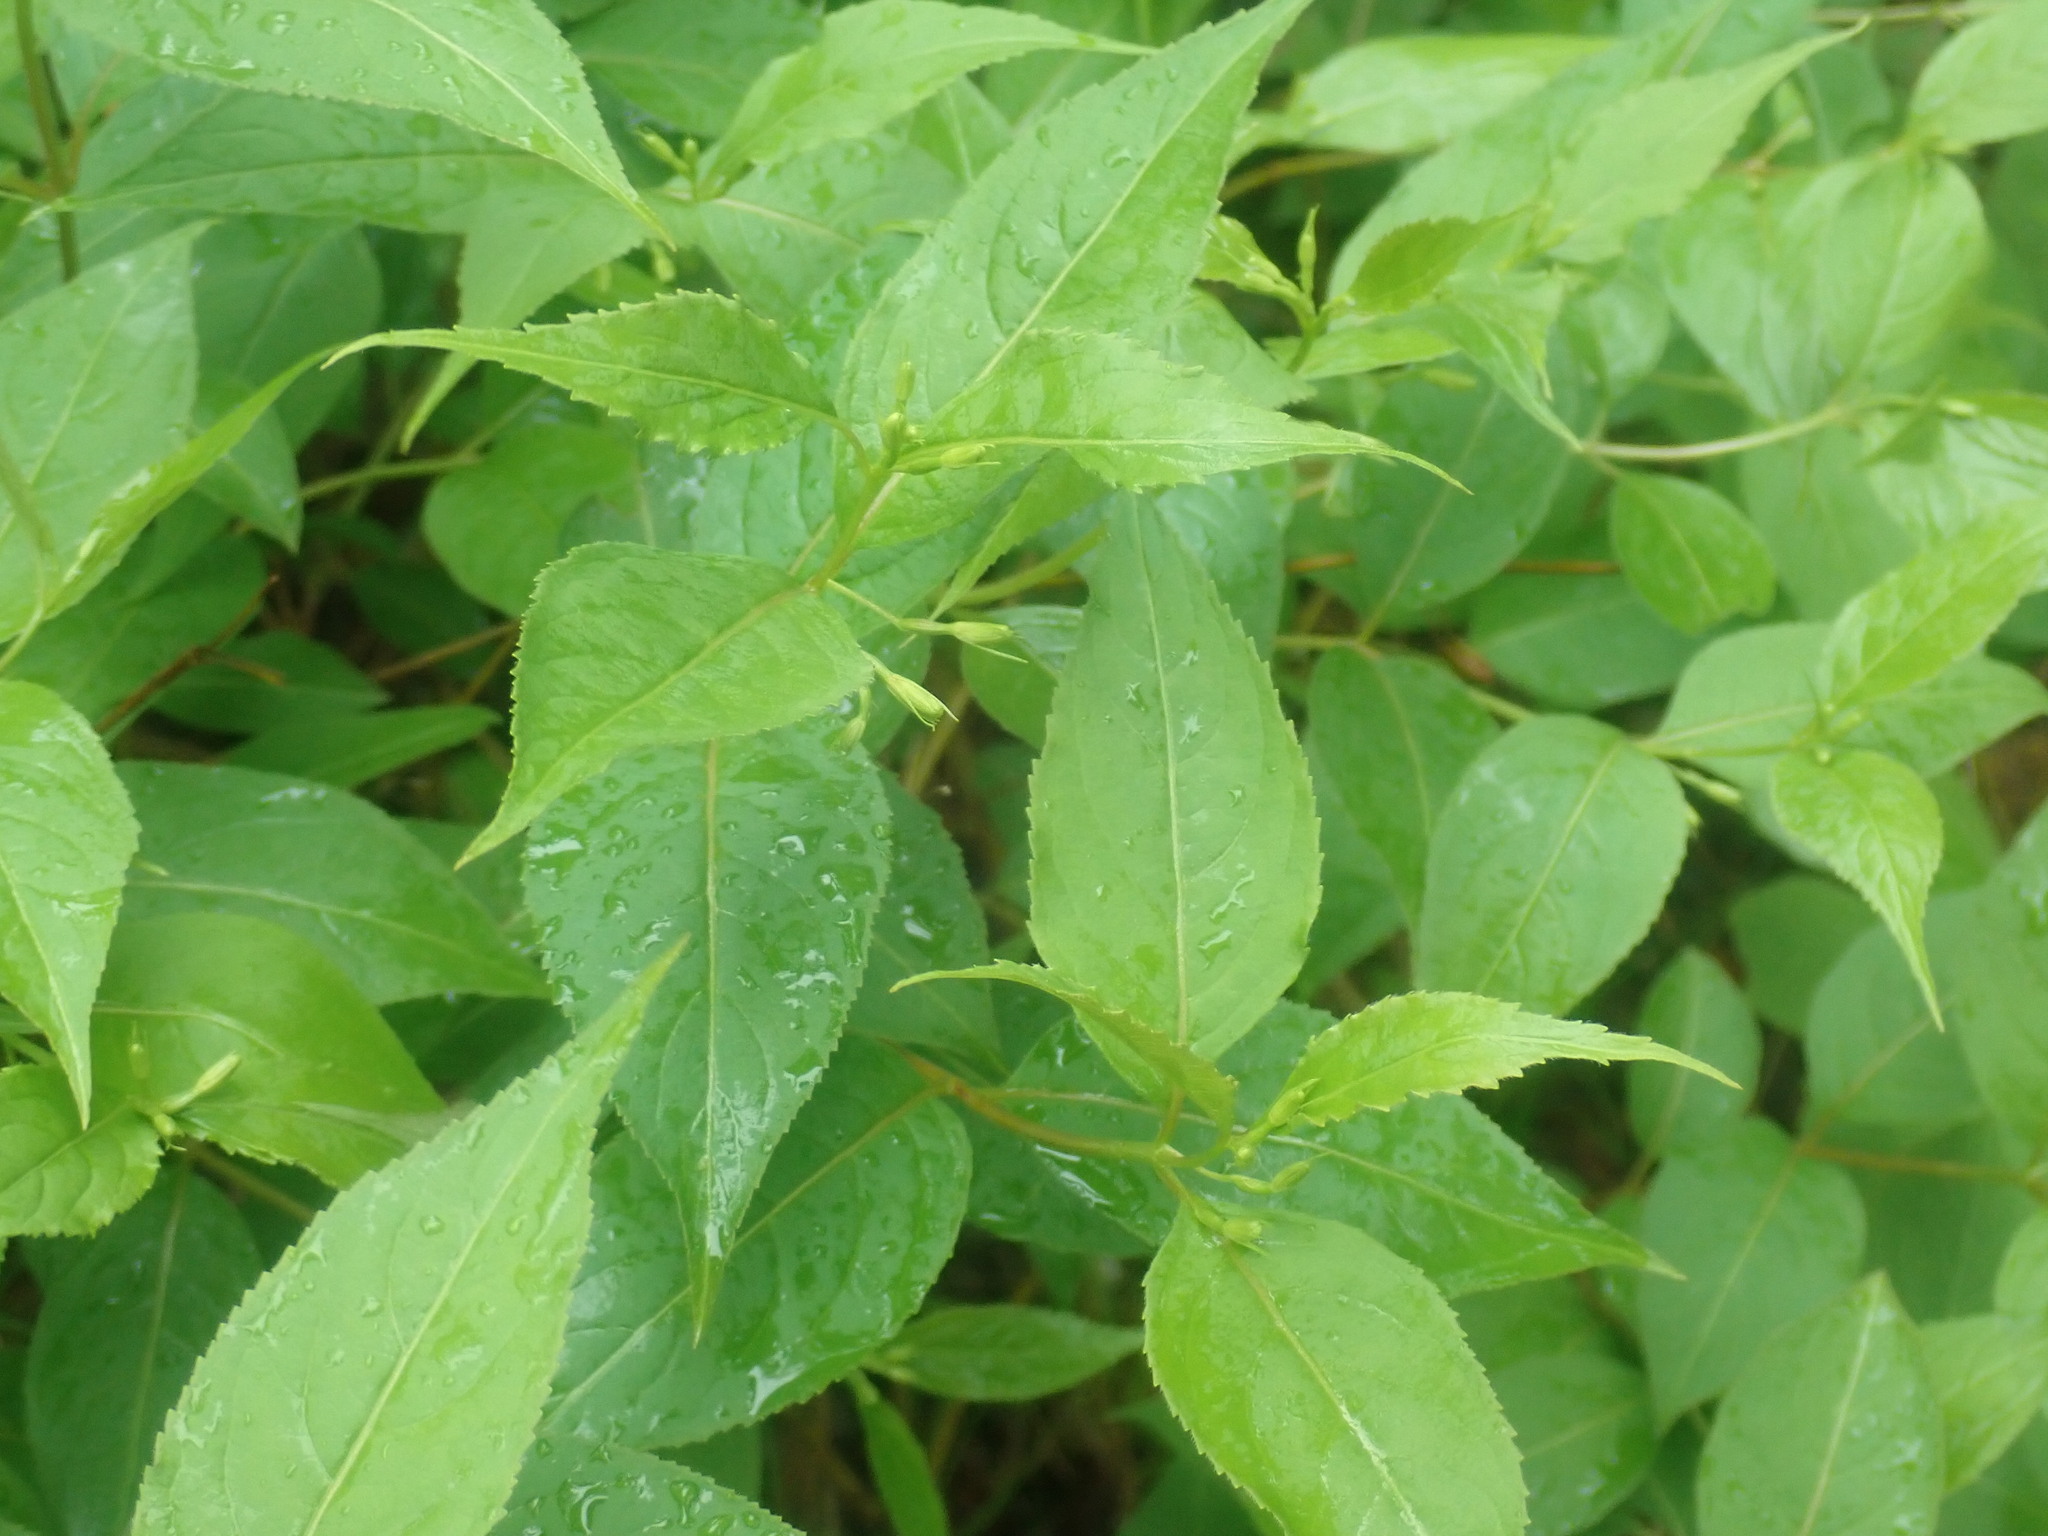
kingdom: Plantae
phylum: Tracheophyta
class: Magnoliopsida
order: Dipsacales
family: Caprifoliaceae
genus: Diervilla
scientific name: Diervilla lonicera
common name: Bush-honeysuckle
